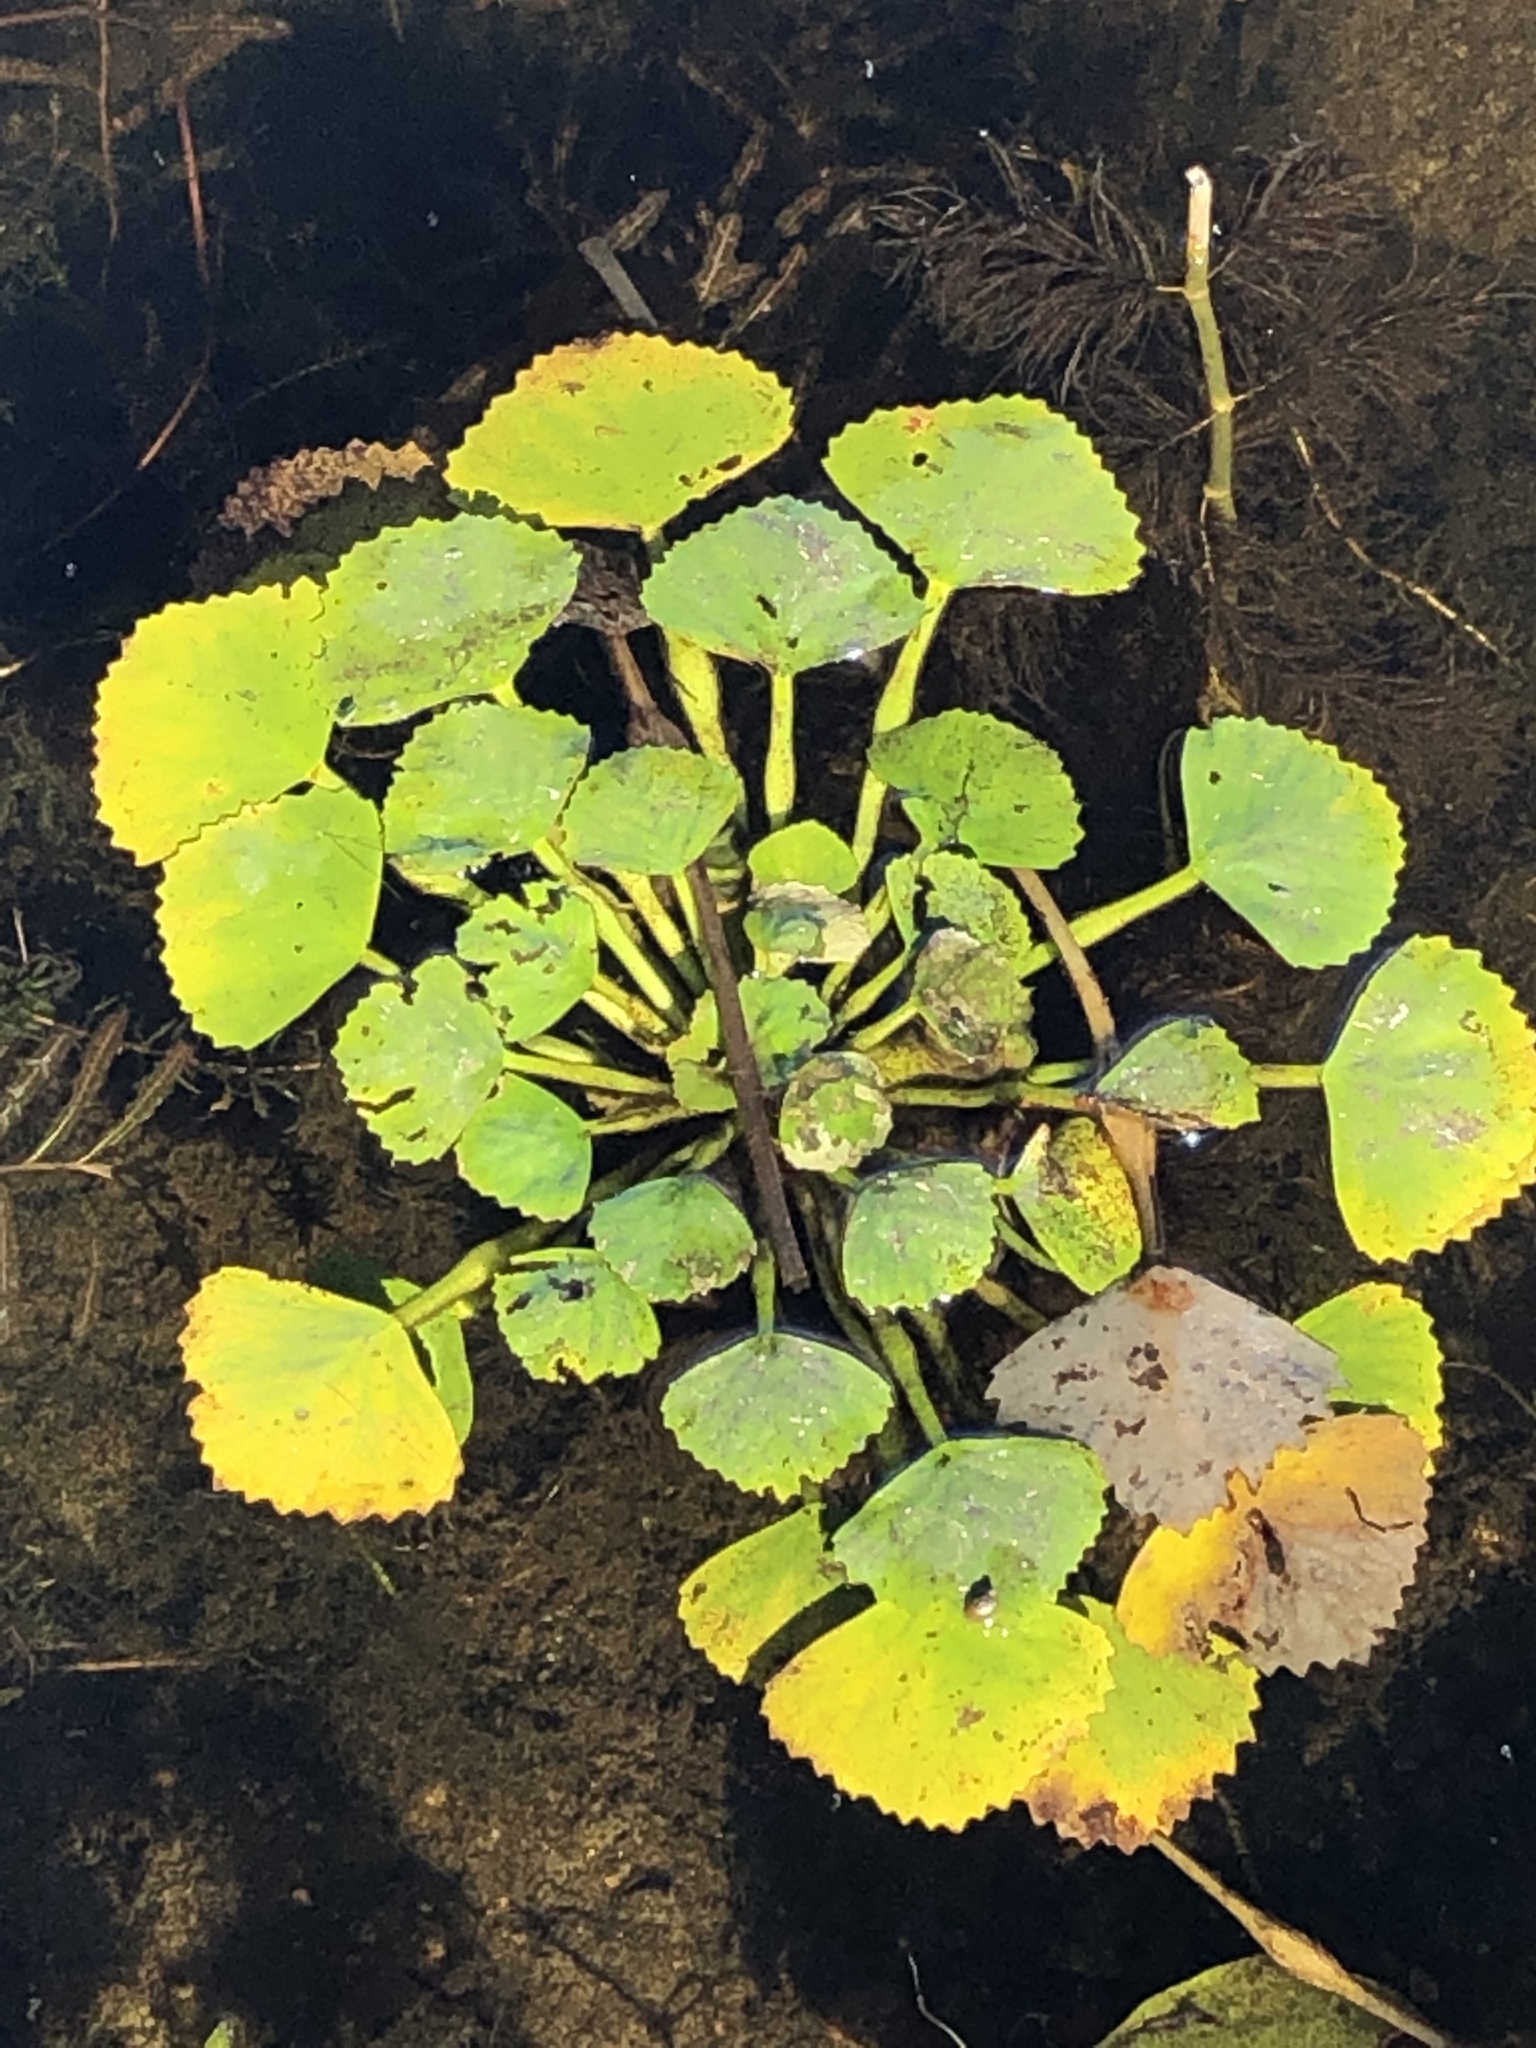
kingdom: Plantae
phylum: Tracheophyta
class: Magnoliopsida
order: Myrtales
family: Lythraceae
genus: Trapa
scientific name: Trapa natans
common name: Water chestnut
